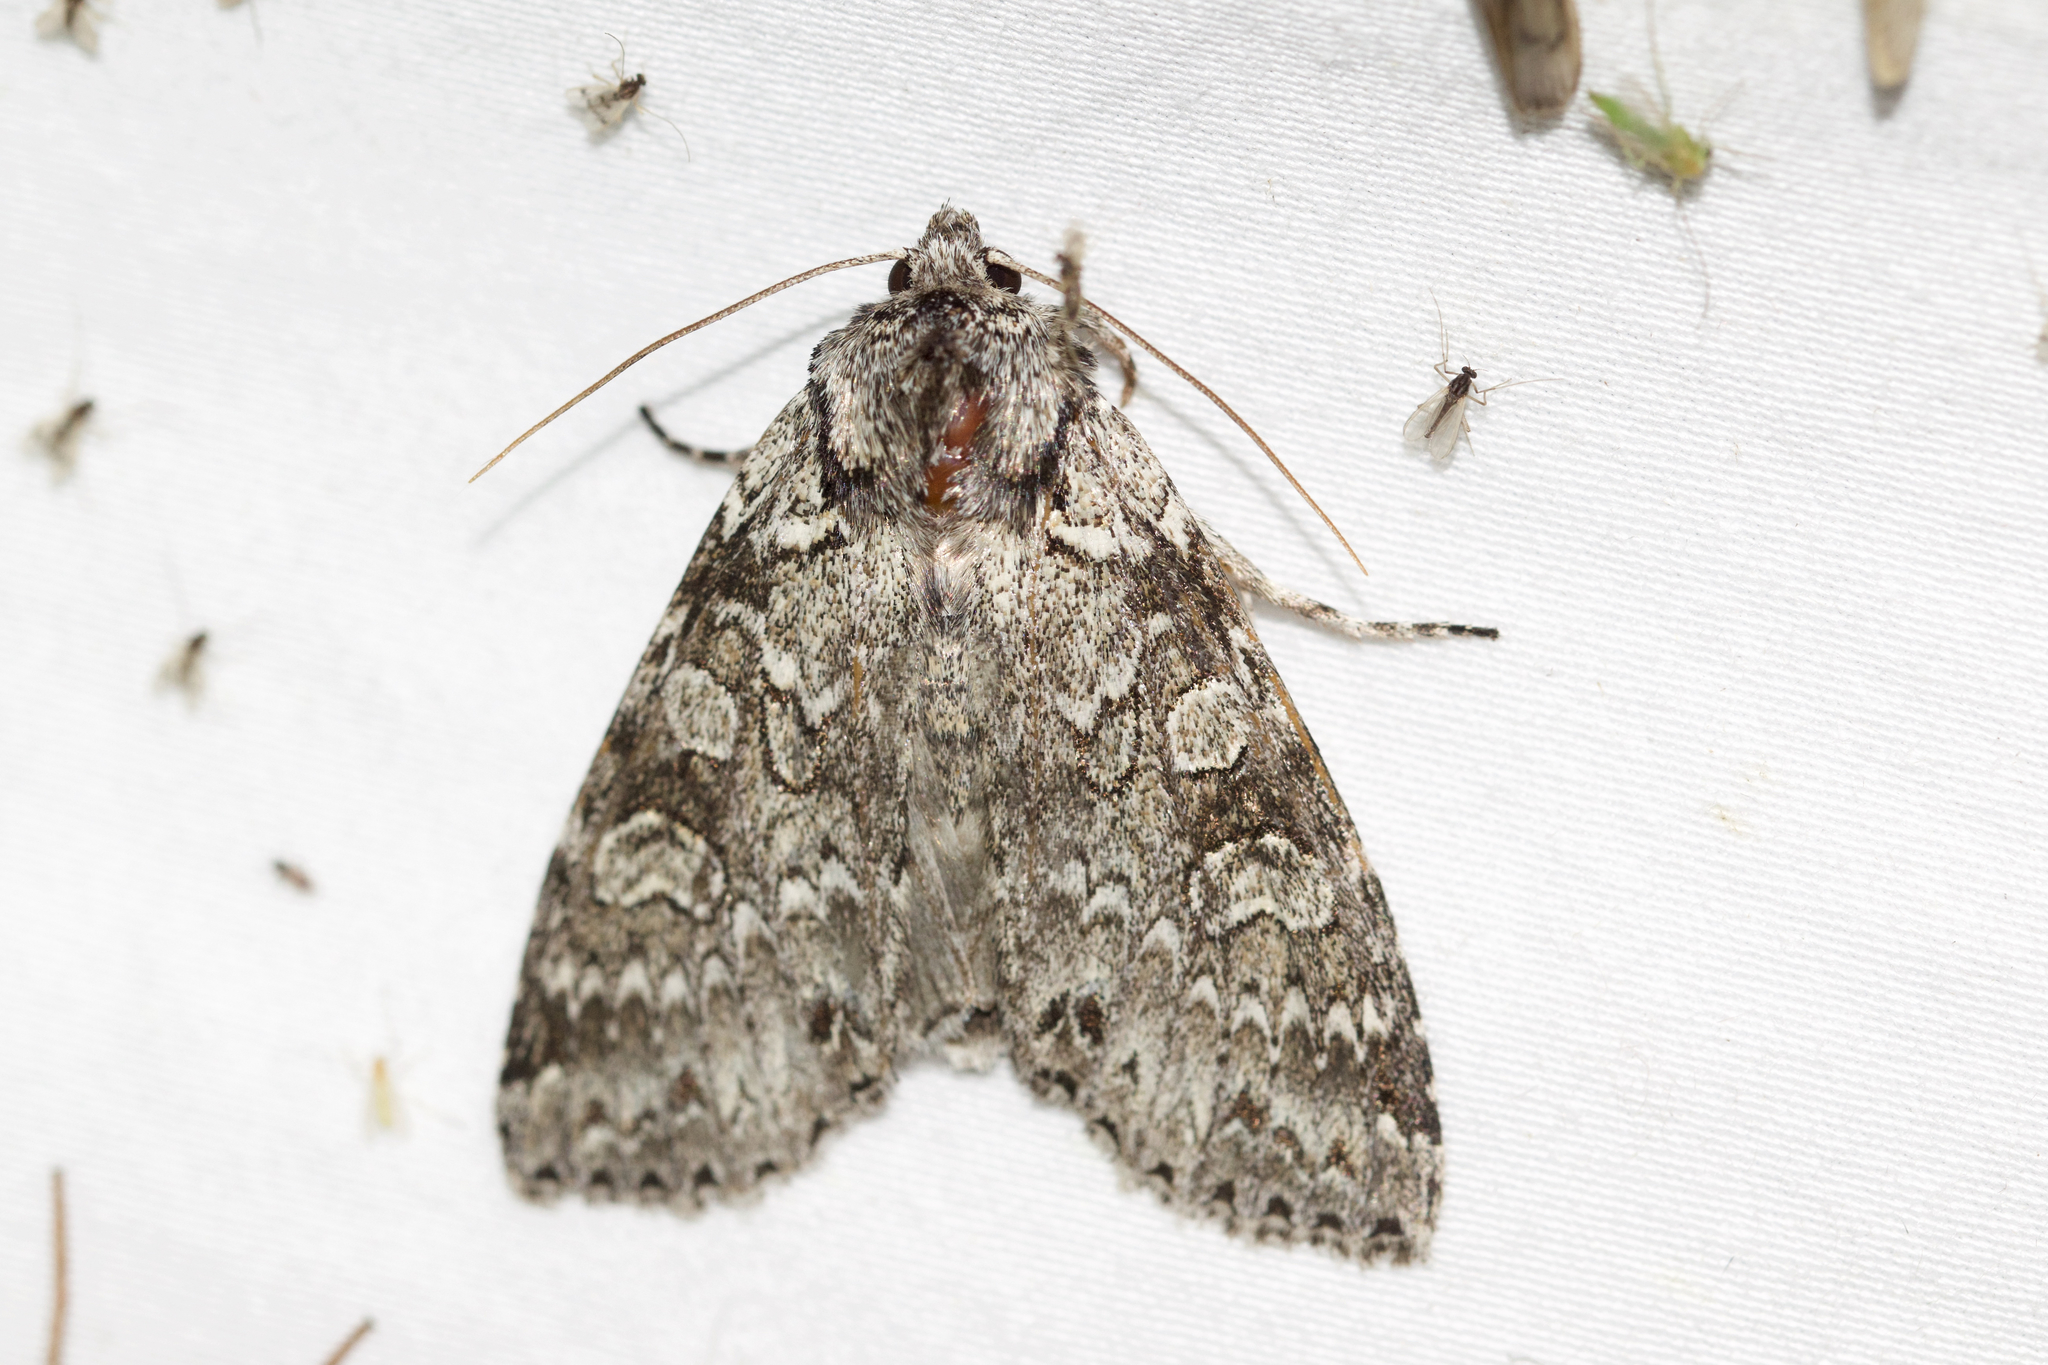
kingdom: Animalia
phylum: Arthropoda
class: Insecta
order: Lepidoptera
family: Noctuidae
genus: Polia
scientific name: Polia nimbosa
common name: Stormy arches
